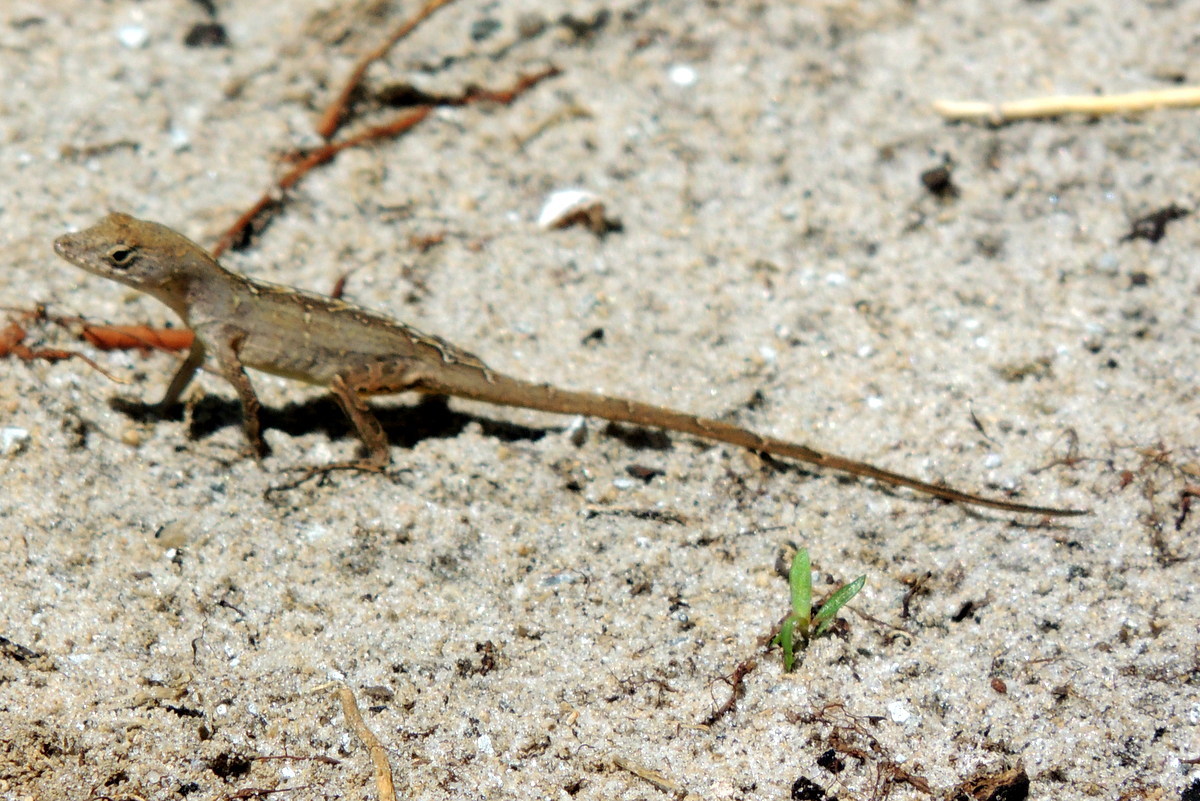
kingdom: Animalia
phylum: Chordata
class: Squamata
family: Dactyloidae
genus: Anolis
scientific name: Anolis sagrei
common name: Brown anole
